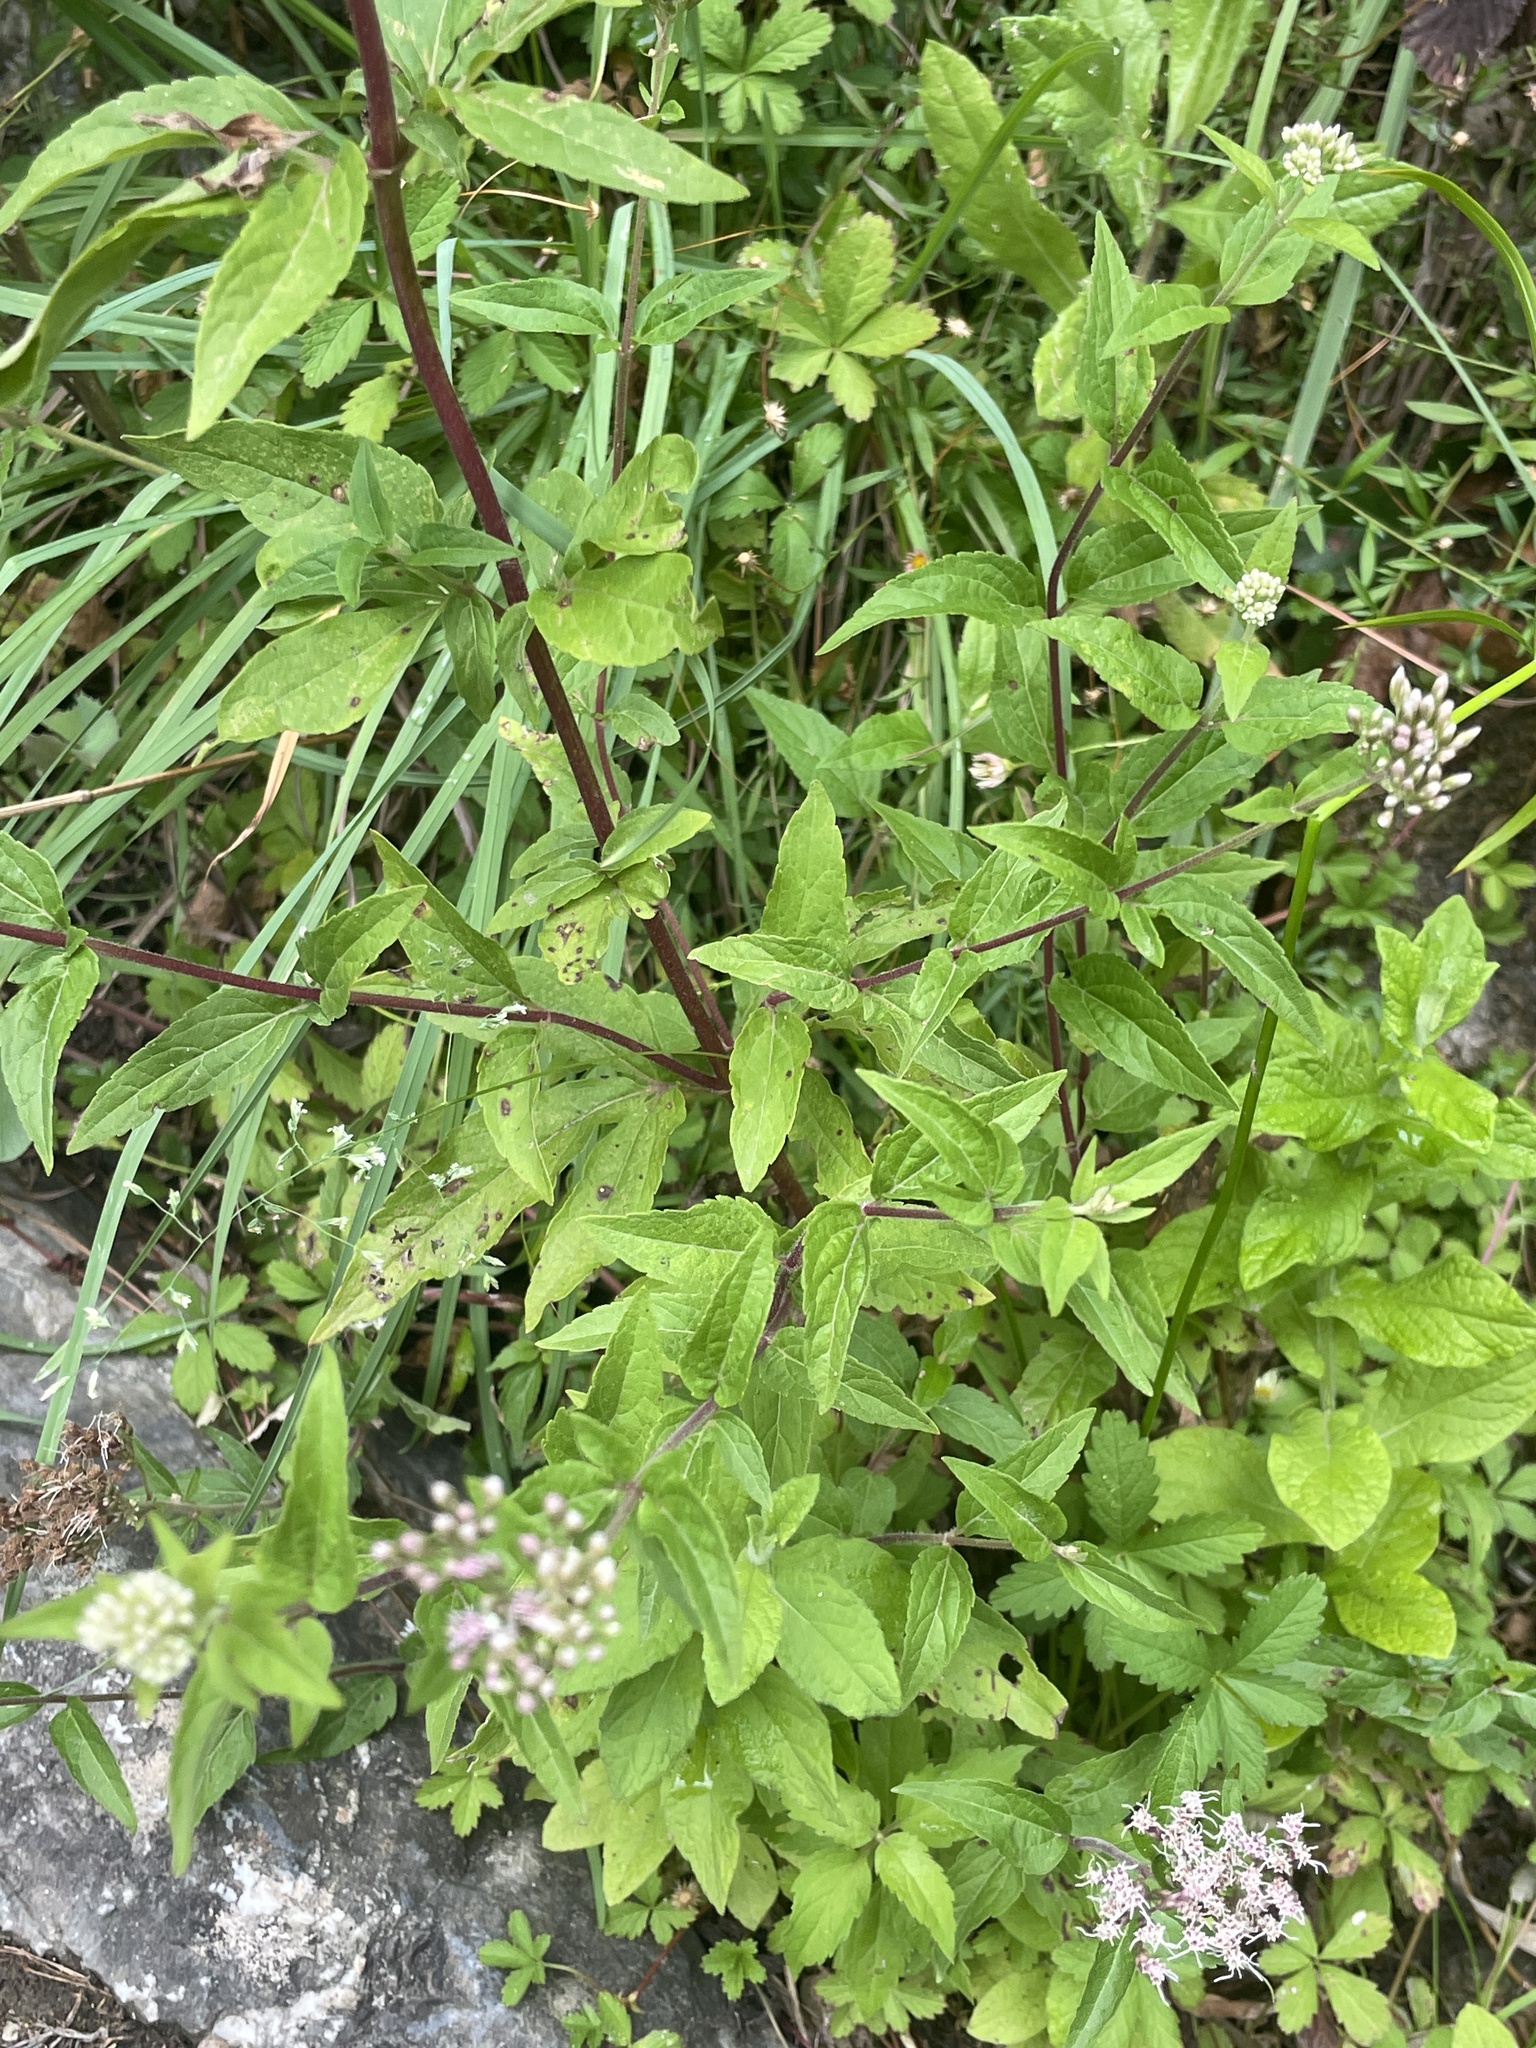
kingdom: Plantae
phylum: Tracheophyta
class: Magnoliopsida
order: Asterales
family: Asteraceae
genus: Eupatorium
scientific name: Eupatorium cannabinum
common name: Hemp-agrimony
